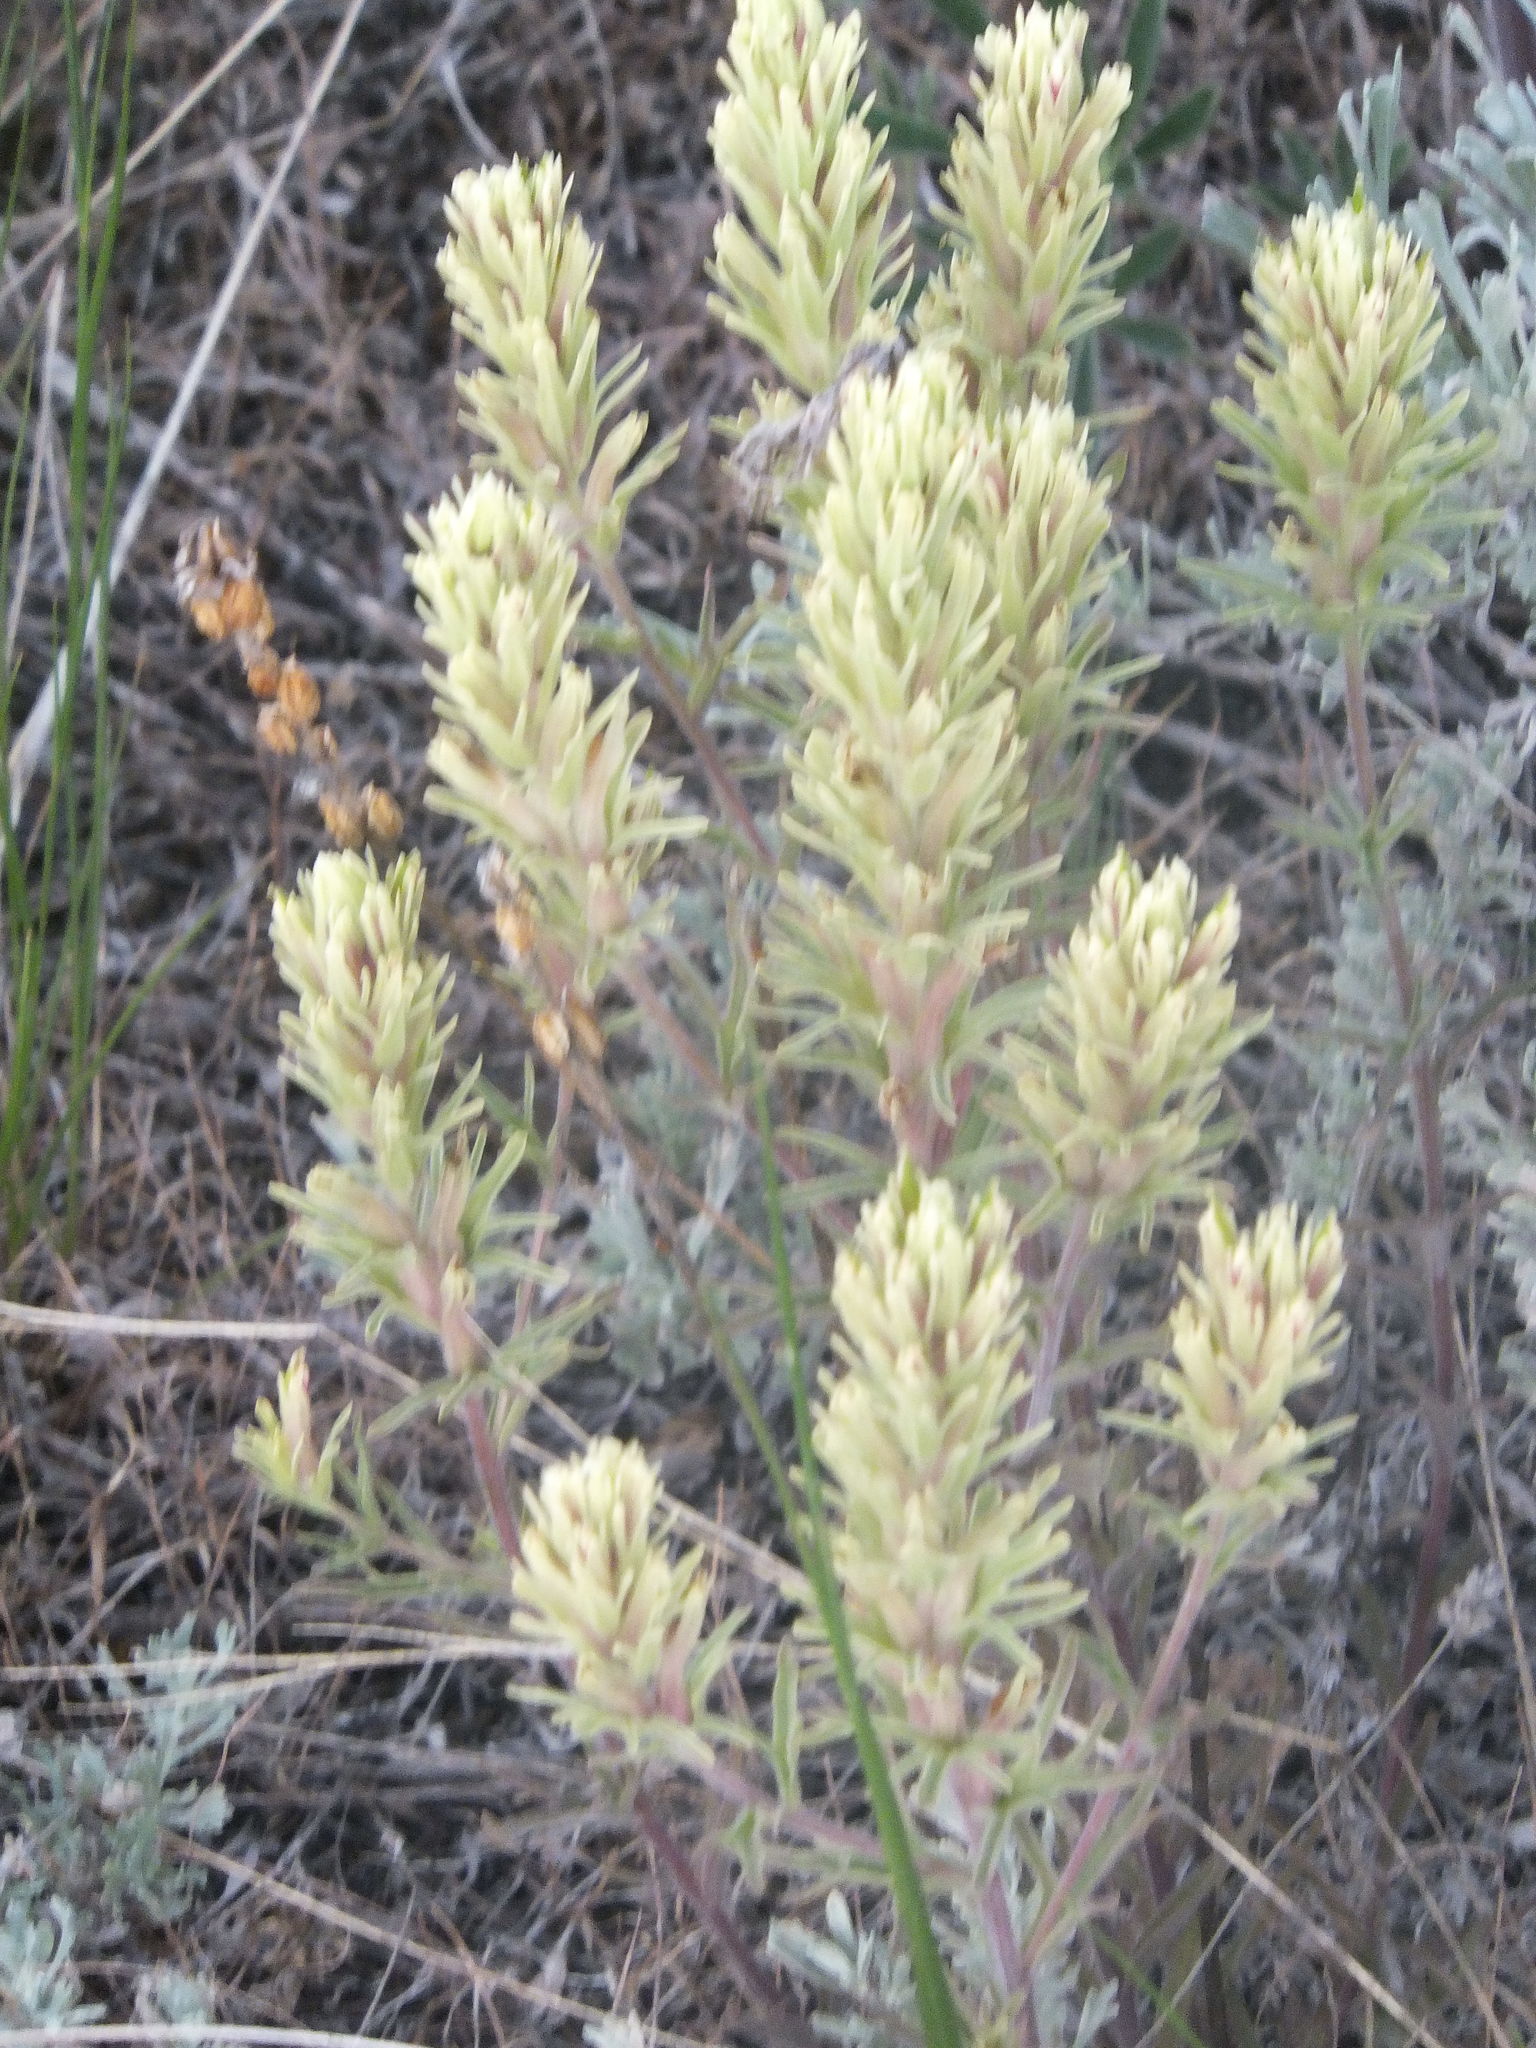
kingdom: Plantae
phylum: Tracheophyta
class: Magnoliopsida
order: Lamiales
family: Orobanchaceae
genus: Castilleja
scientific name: Castilleja thompsonii
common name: Thompson's paintbrush
